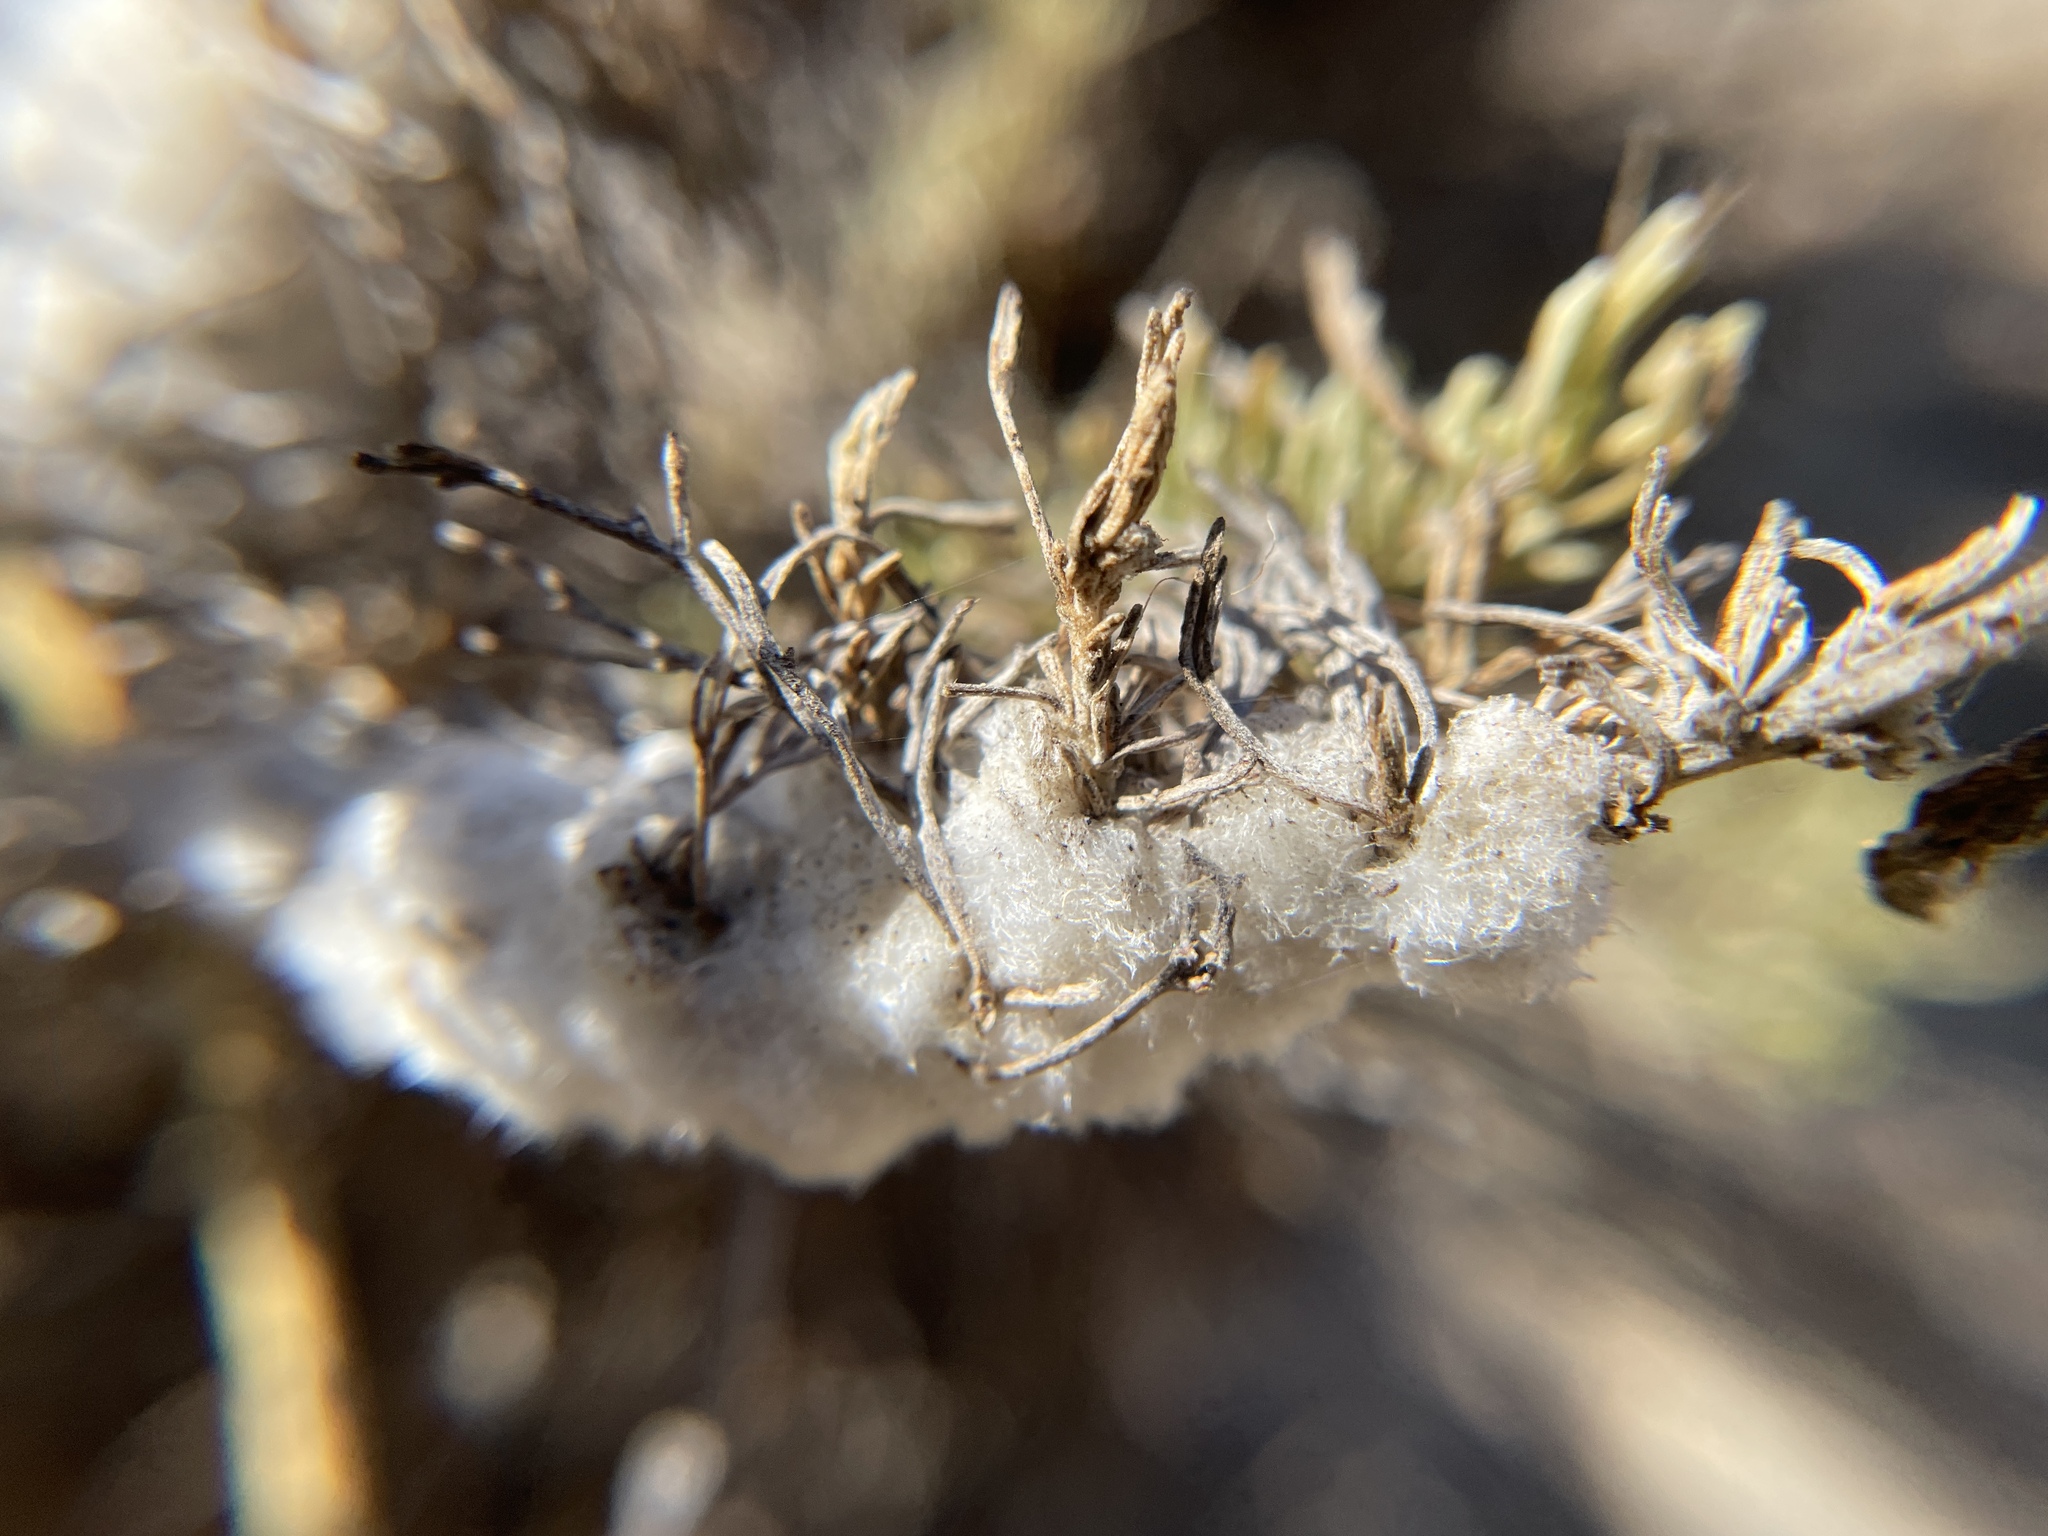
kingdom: Animalia
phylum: Arthropoda
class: Insecta
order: Diptera
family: Cecidomyiidae
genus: Rhopalomyia
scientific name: Rhopalomyia floccosa
